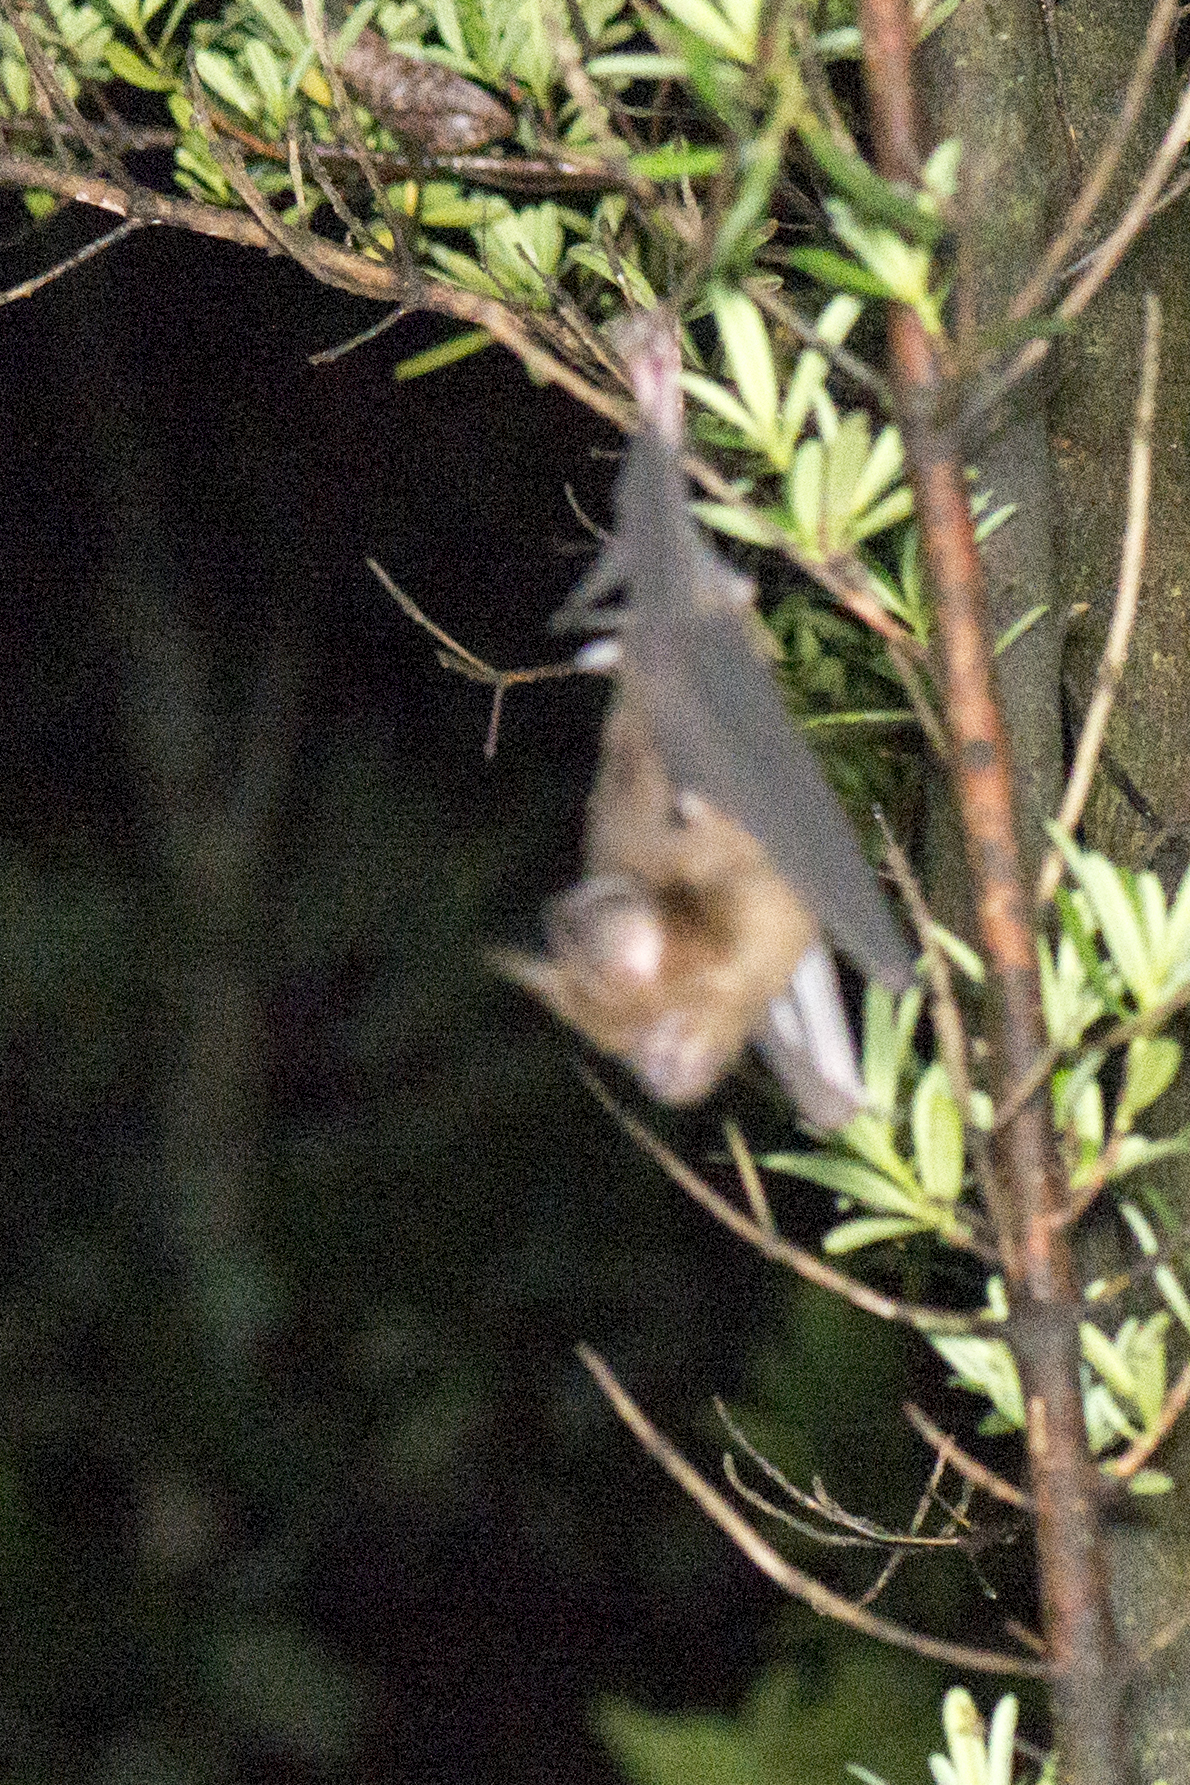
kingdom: Animalia
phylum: Chordata
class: Mammalia
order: Chiroptera
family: Hipposideridae
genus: Hipposideros
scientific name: Hipposideros armiger
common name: Great leaf-nosed bat
